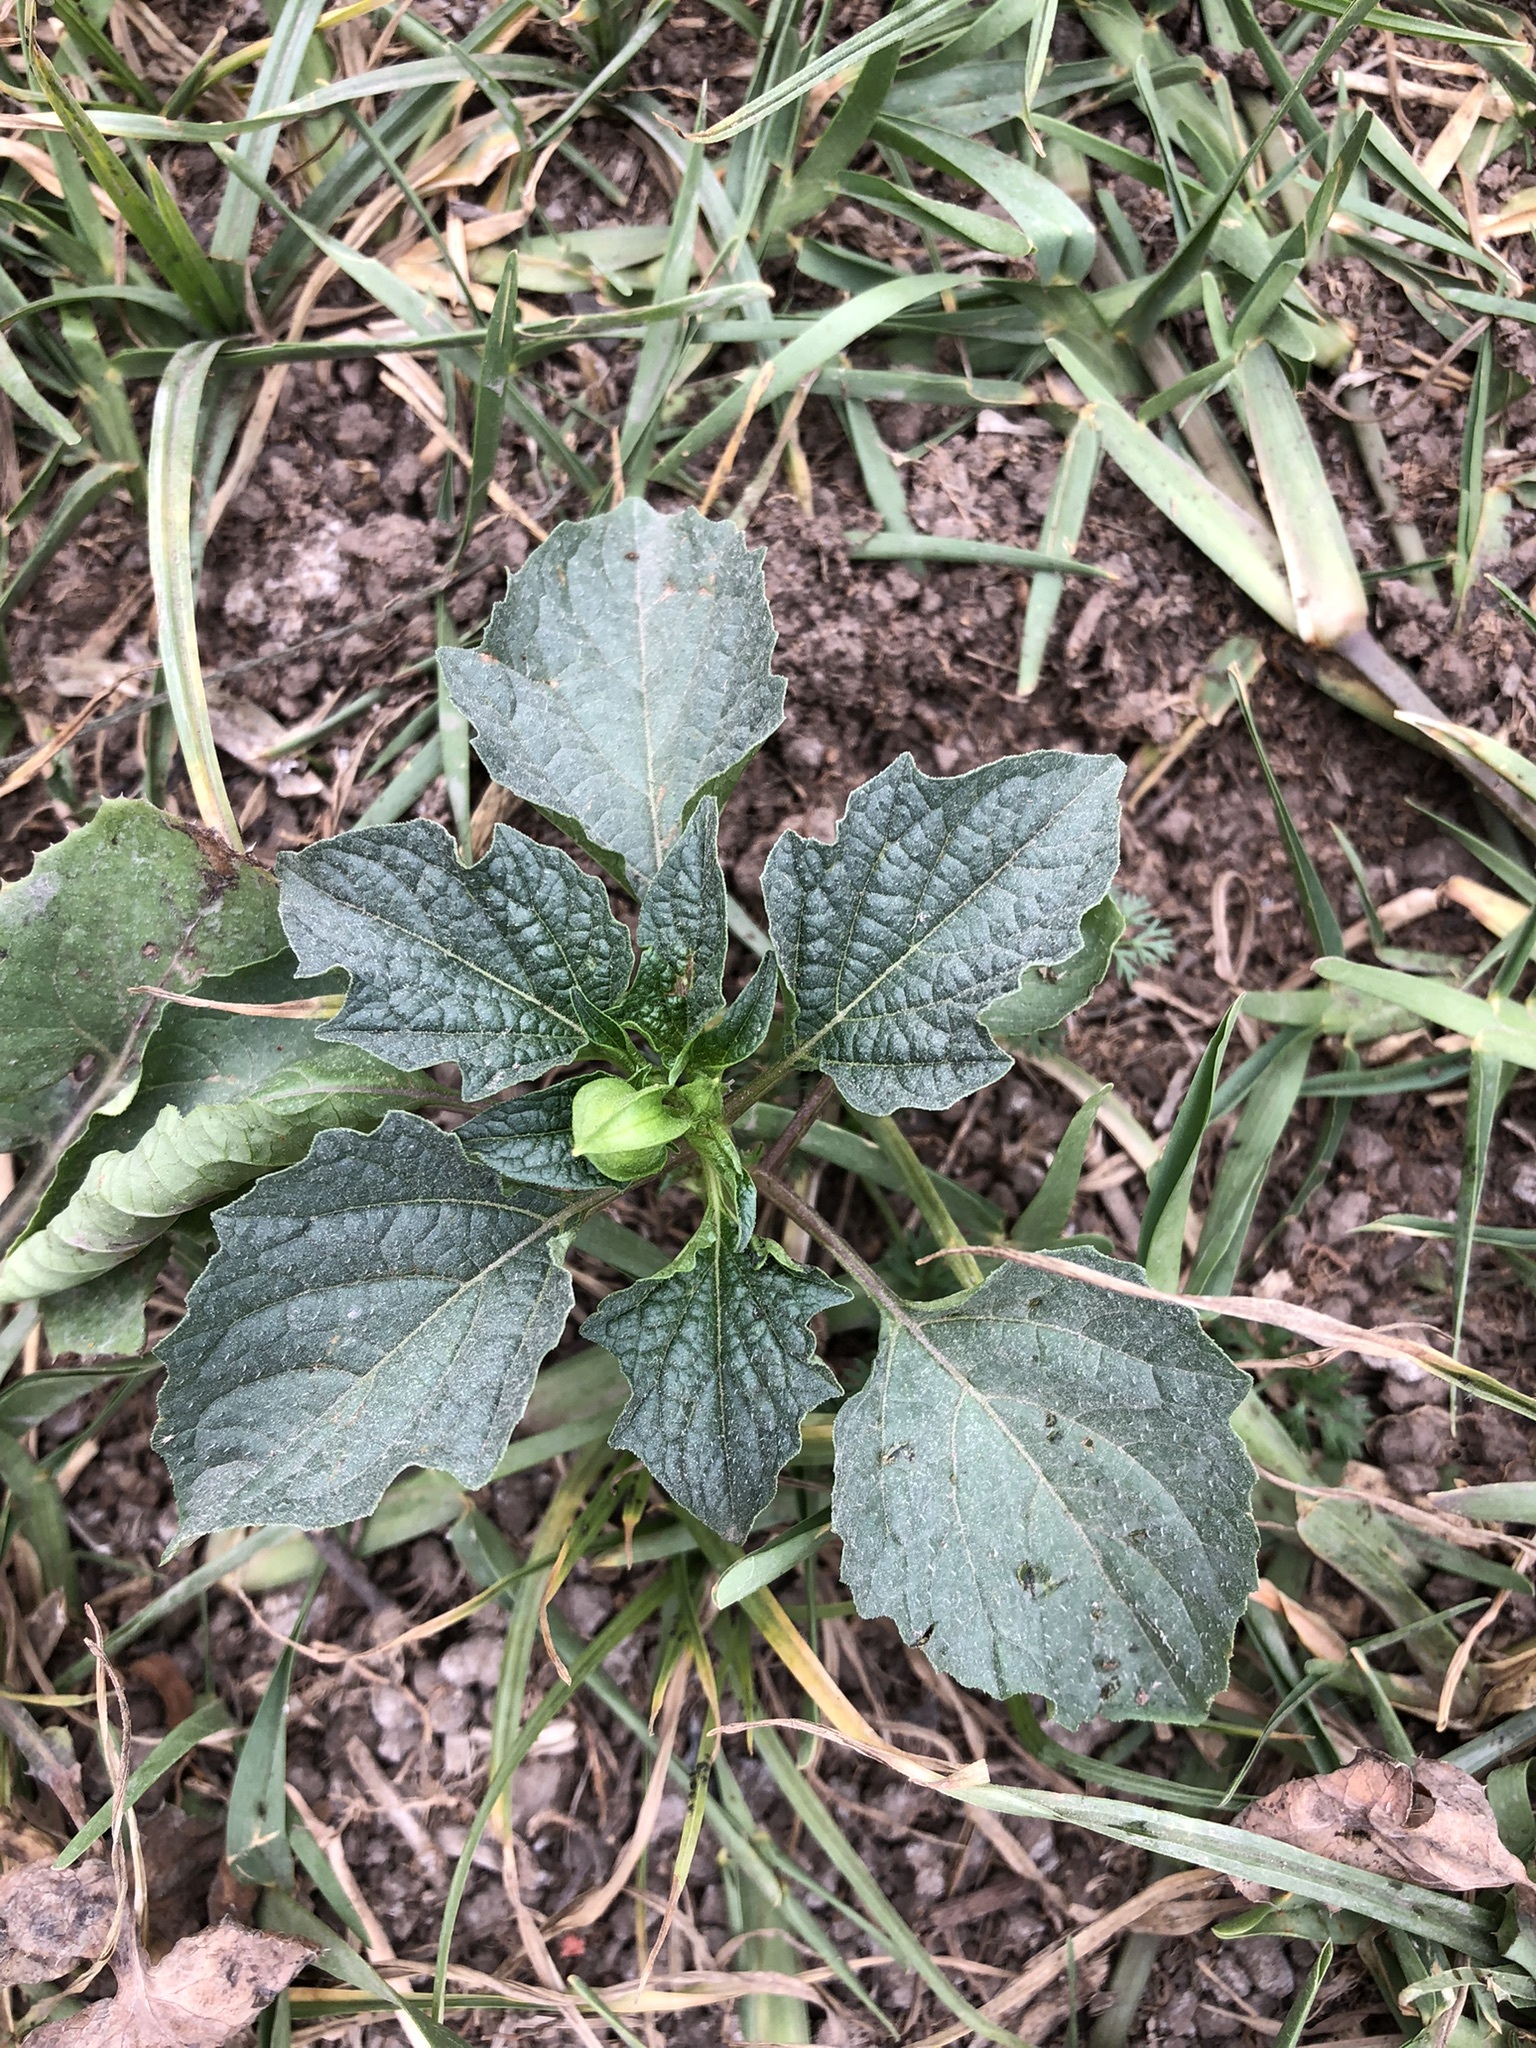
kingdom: Plantae
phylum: Tracheophyta
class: Magnoliopsida
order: Solanales
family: Solanaceae
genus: Nicandra
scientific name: Nicandra physalodes
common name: Apple-of-peru
